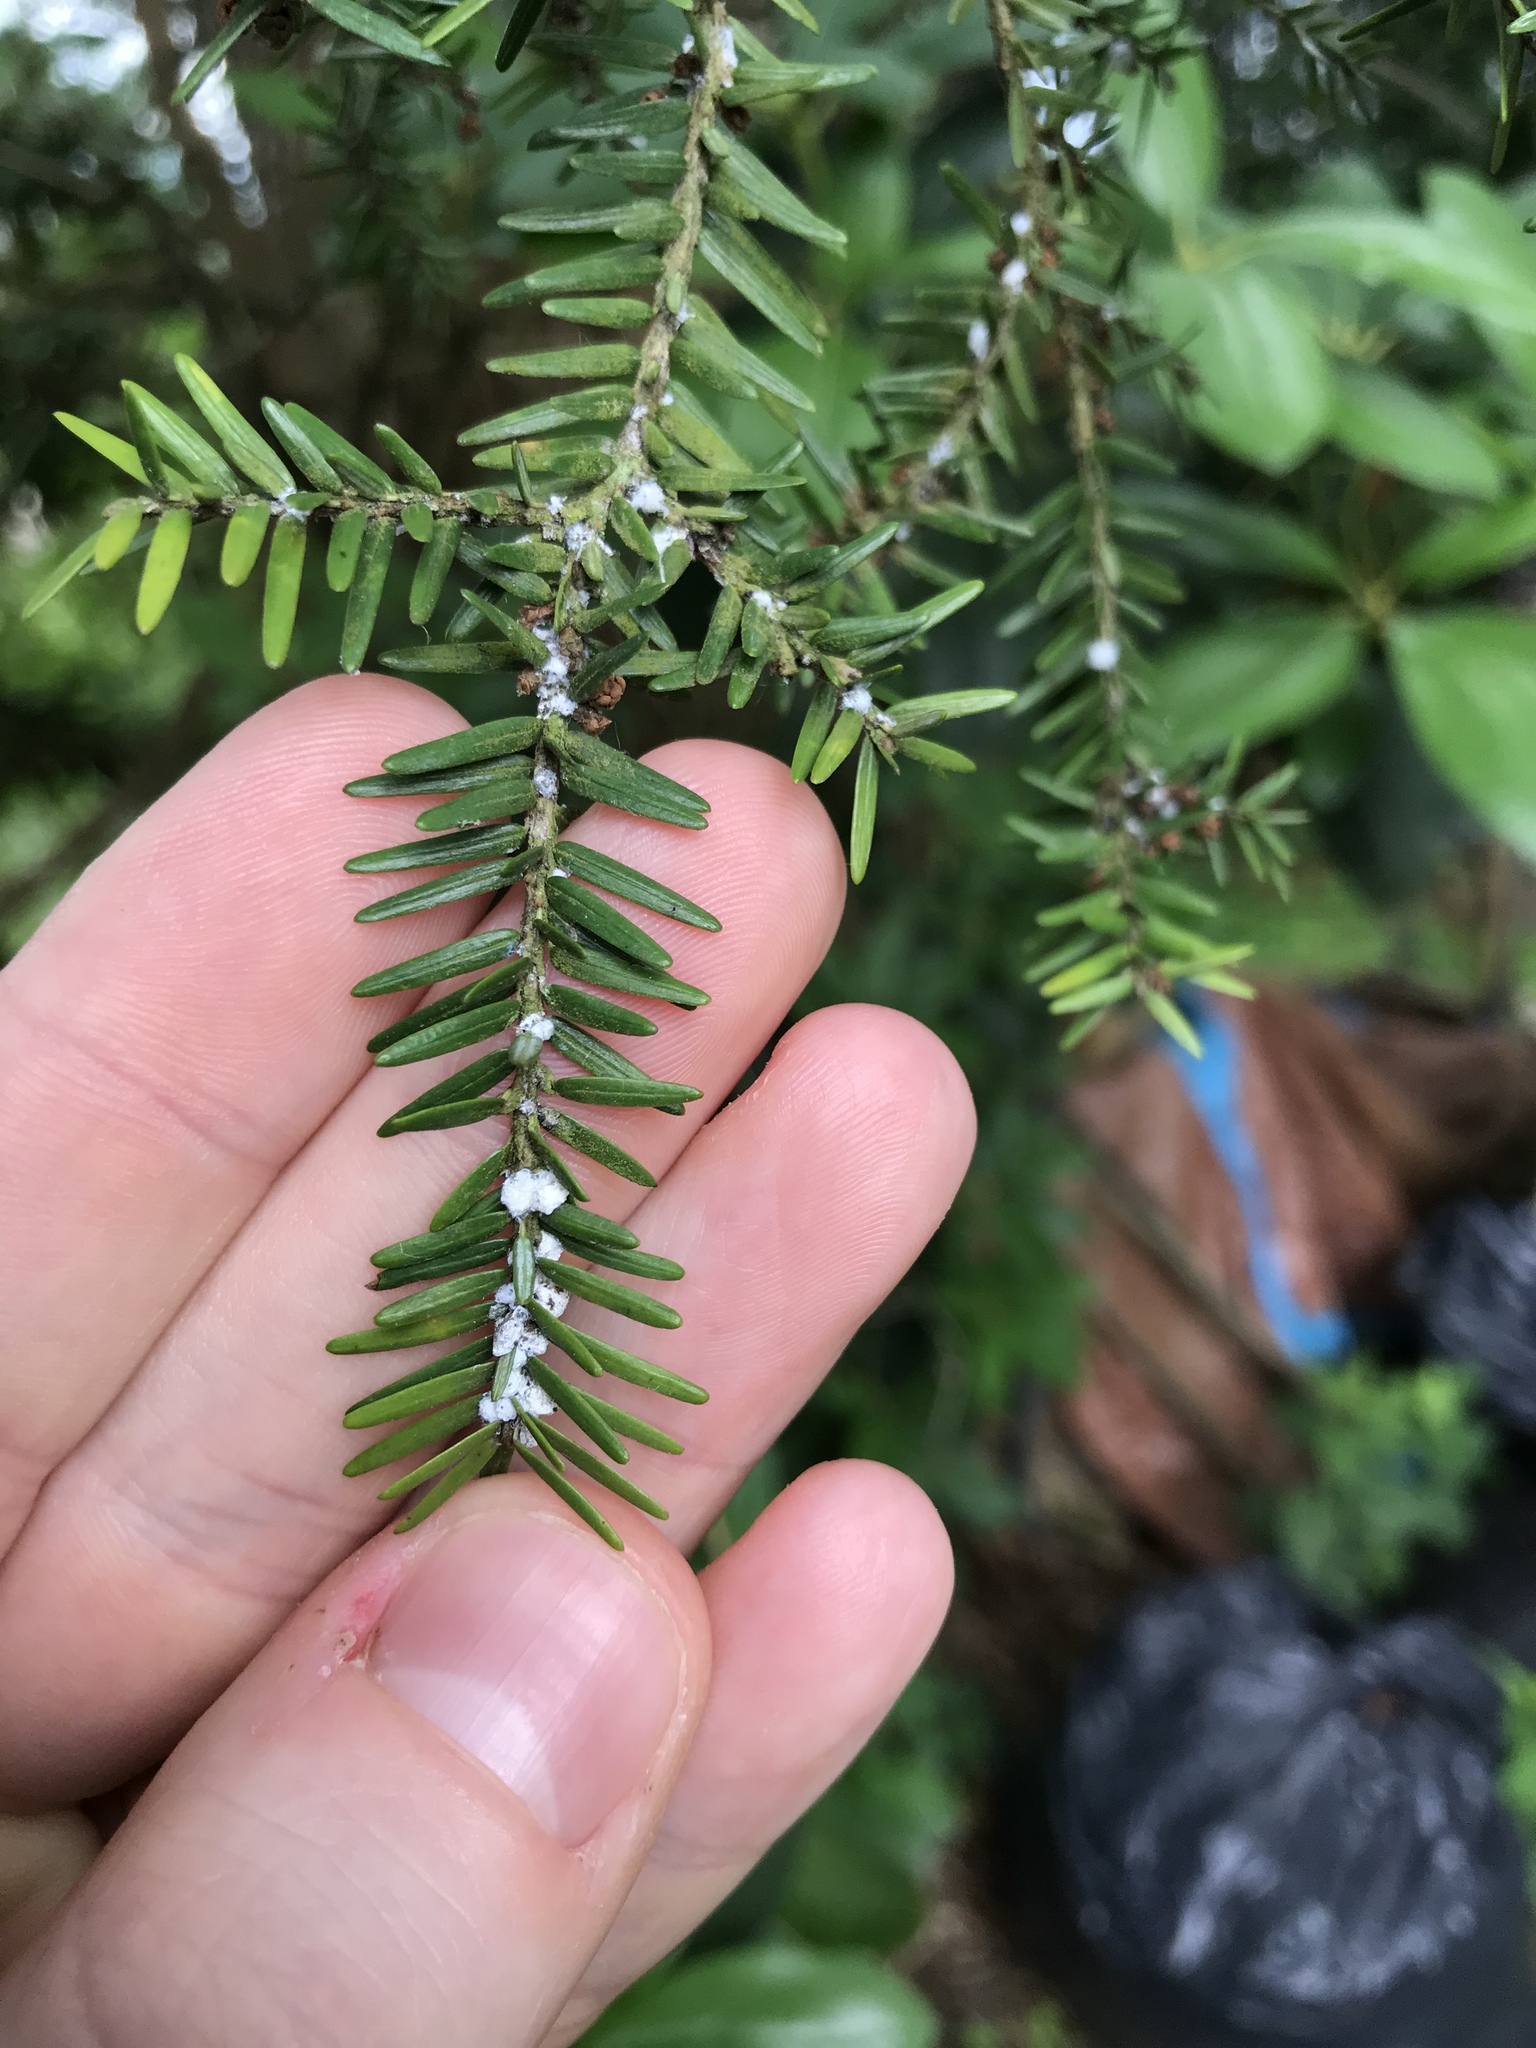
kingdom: Animalia
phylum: Arthropoda
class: Insecta
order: Hemiptera
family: Adelgidae
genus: Adelges
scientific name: Adelges tsugae
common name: Hemlock woolly adelgid
